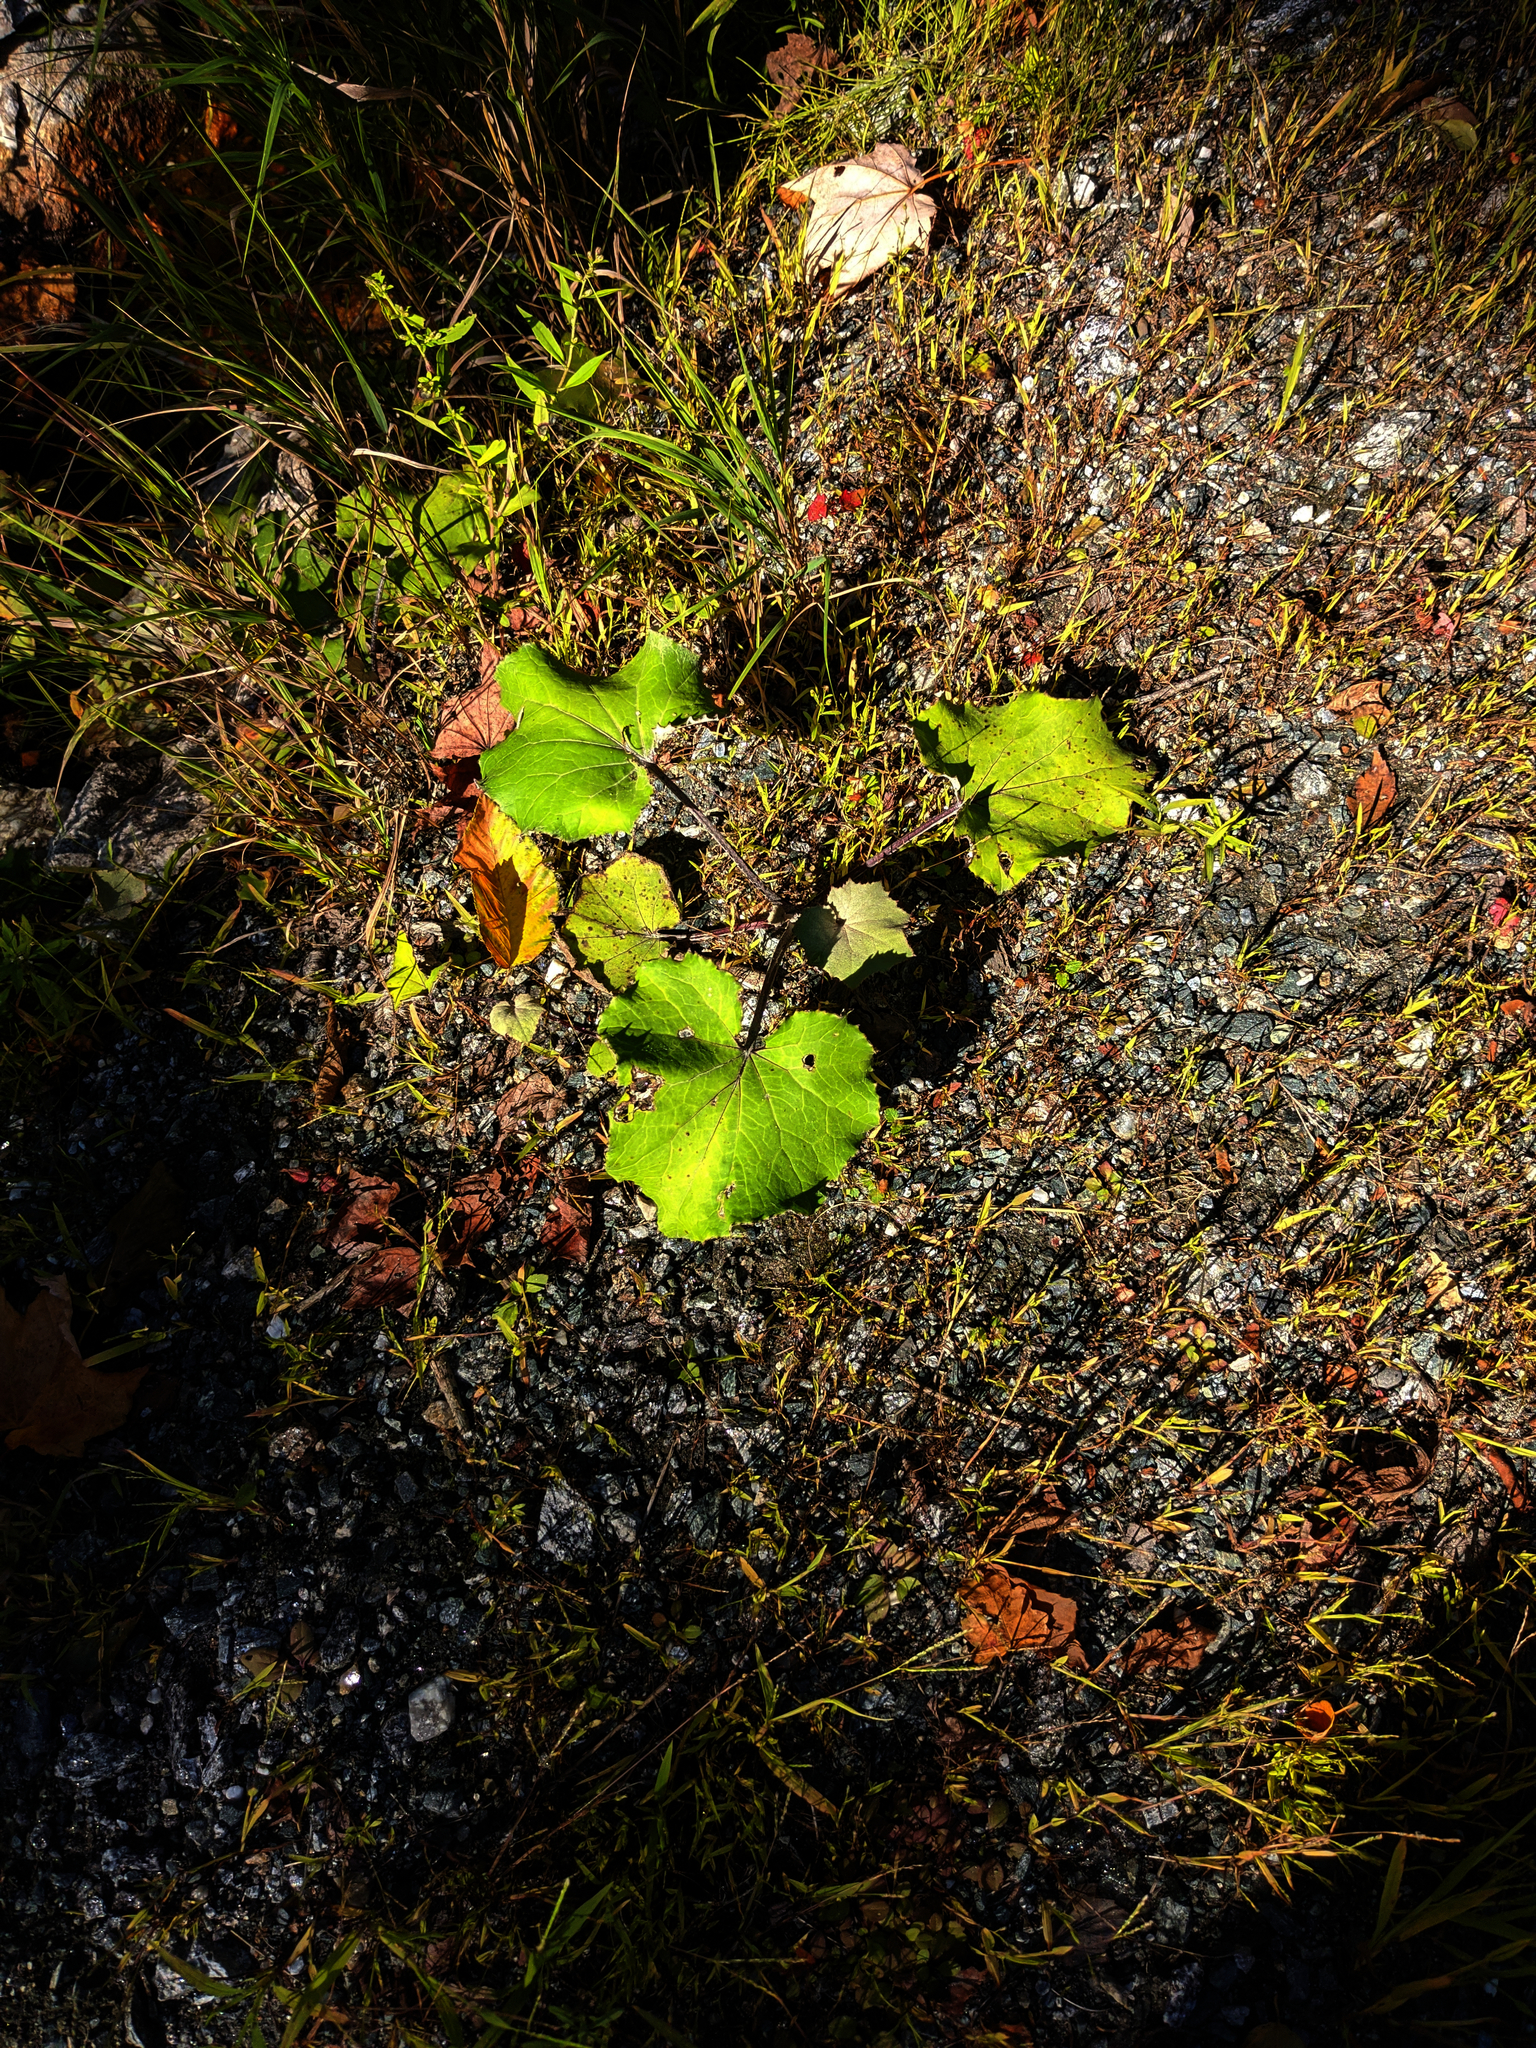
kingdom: Plantae
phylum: Tracheophyta
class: Magnoliopsida
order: Asterales
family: Asteraceae
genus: Tussilago
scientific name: Tussilago farfara
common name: Coltsfoot
